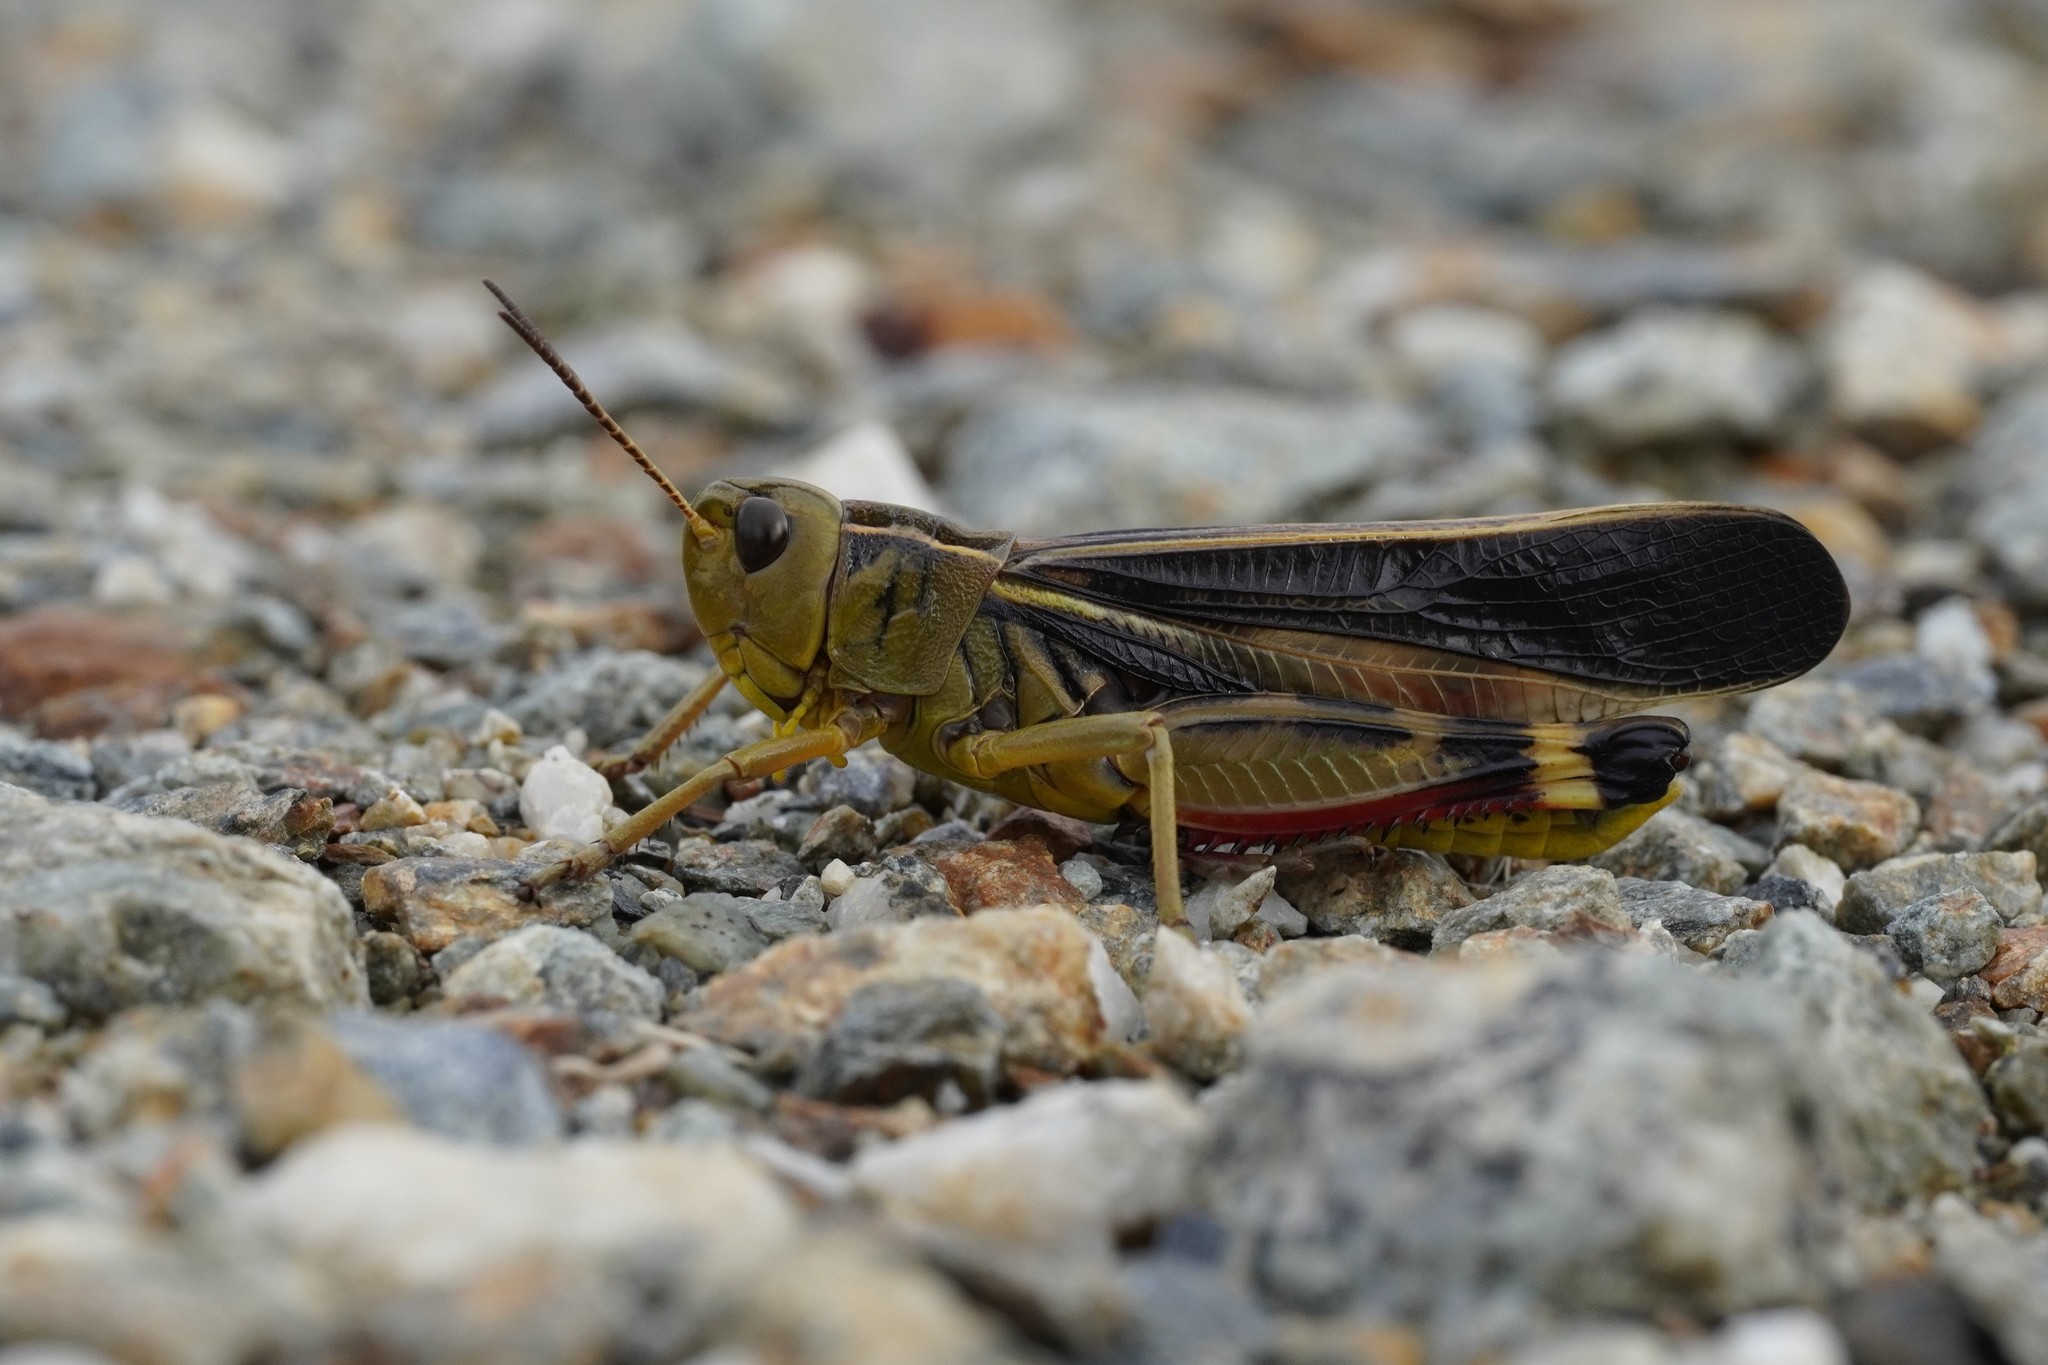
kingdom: Animalia
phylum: Arthropoda
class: Insecta
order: Orthoptera
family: Acrididae
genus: Arcyptera
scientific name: Arcyptera fusca
